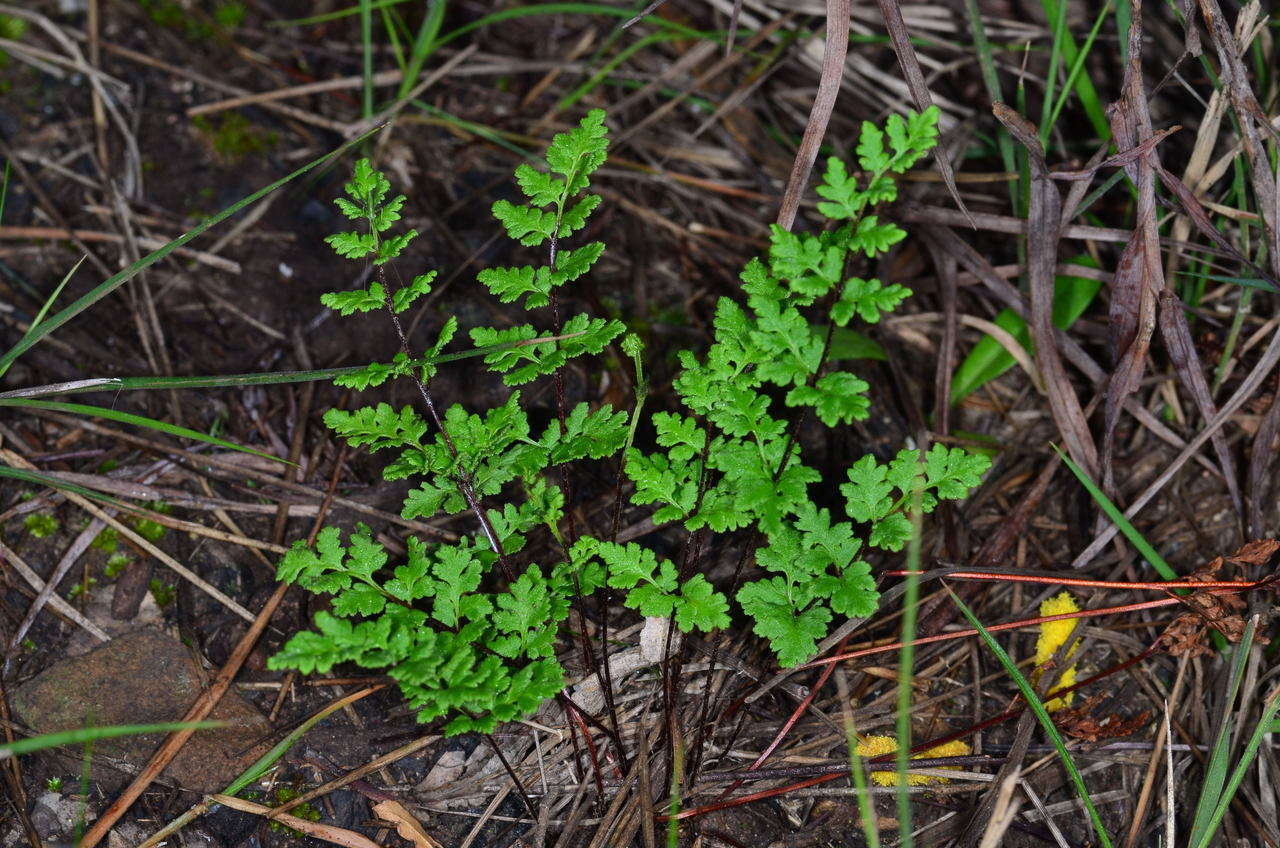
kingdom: Plantae
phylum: Tracheophyta
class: Polypodiopsida
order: Polypodiales
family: Pteridaceae
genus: Cheilanthes
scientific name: Cheilanthes austrotenuifolia
